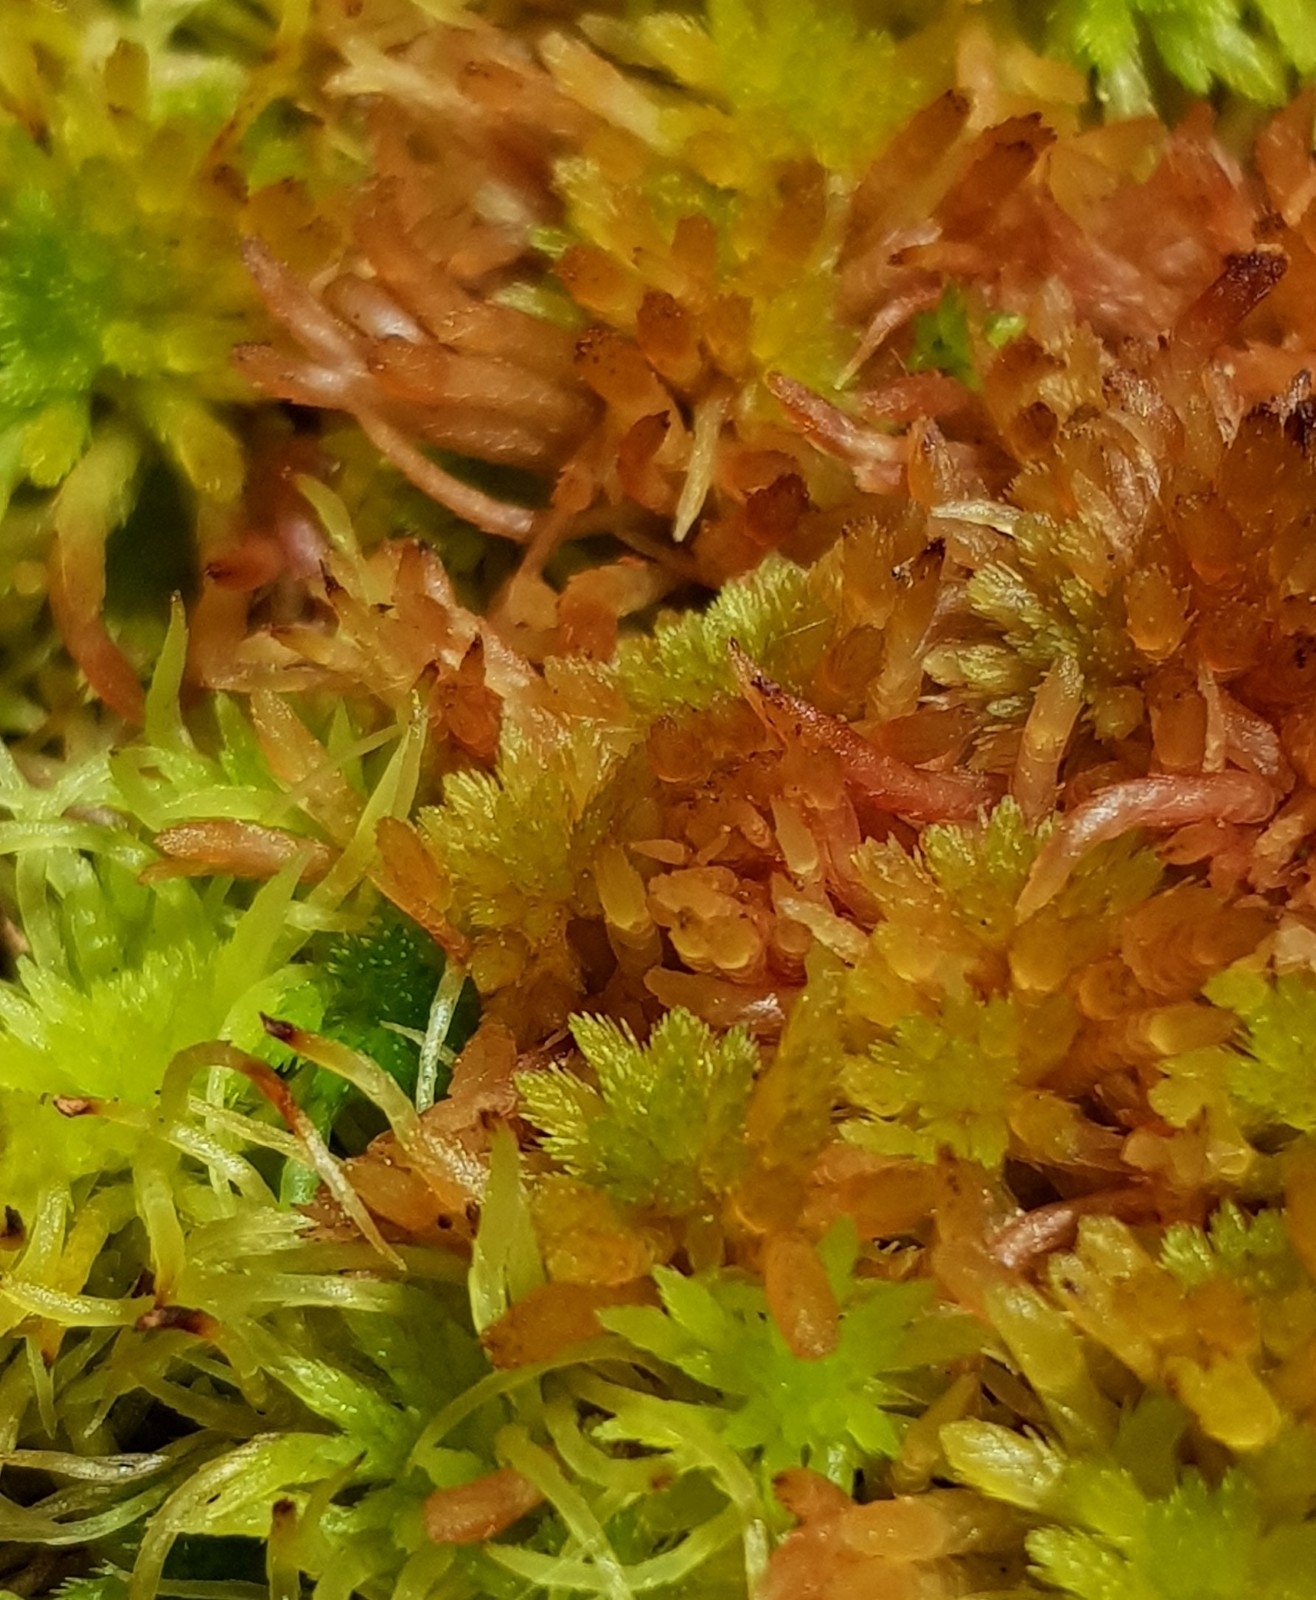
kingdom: Plantae
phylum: Bryophyta
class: Sphagnopsida
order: Sphagnales
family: Sphagnaceae
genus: Sphagnum
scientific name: Sphagnum subnitens
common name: Lustrous bog-moss
